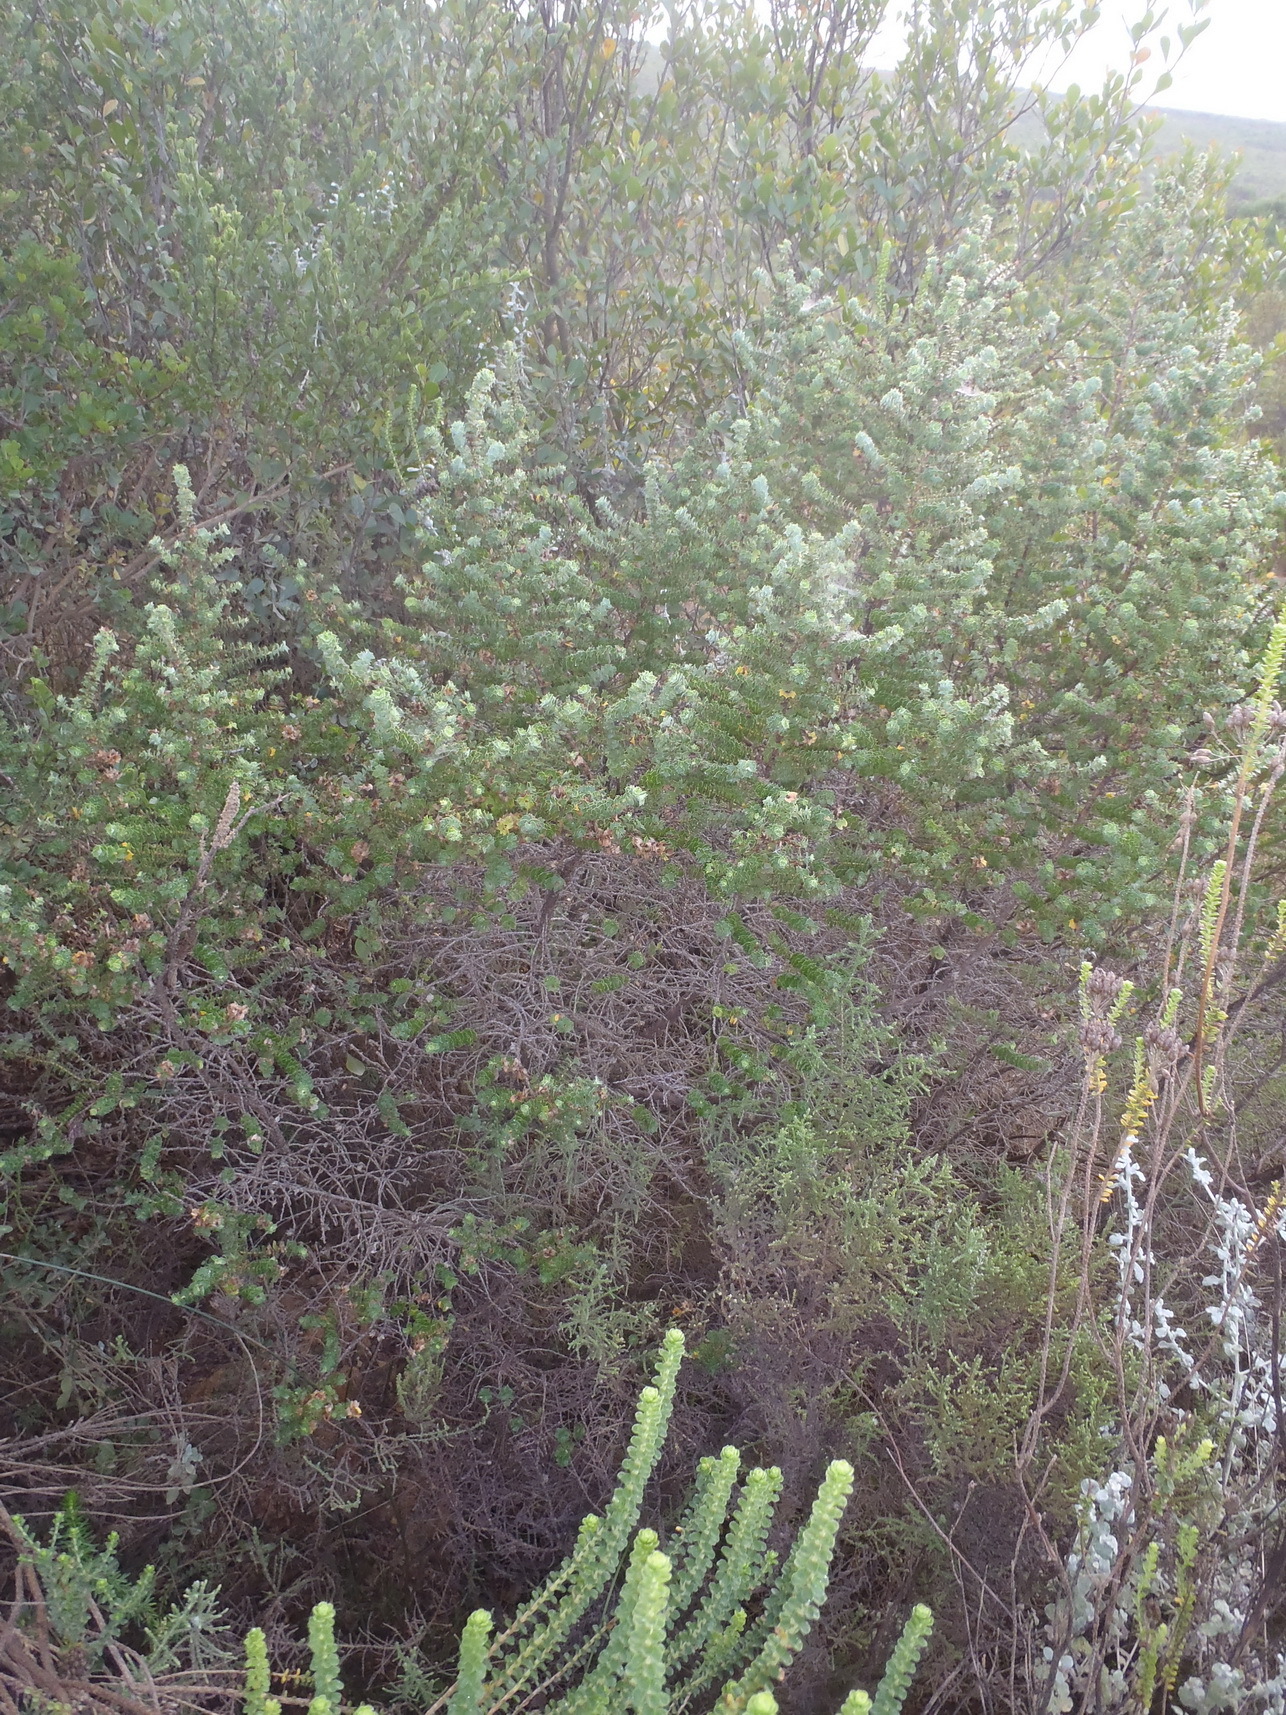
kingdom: Plantae
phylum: Tracheophyta
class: Magnoliopsida
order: Rosales
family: Rosaceae
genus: Cliffortia
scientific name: Cliffortia schlechteri
